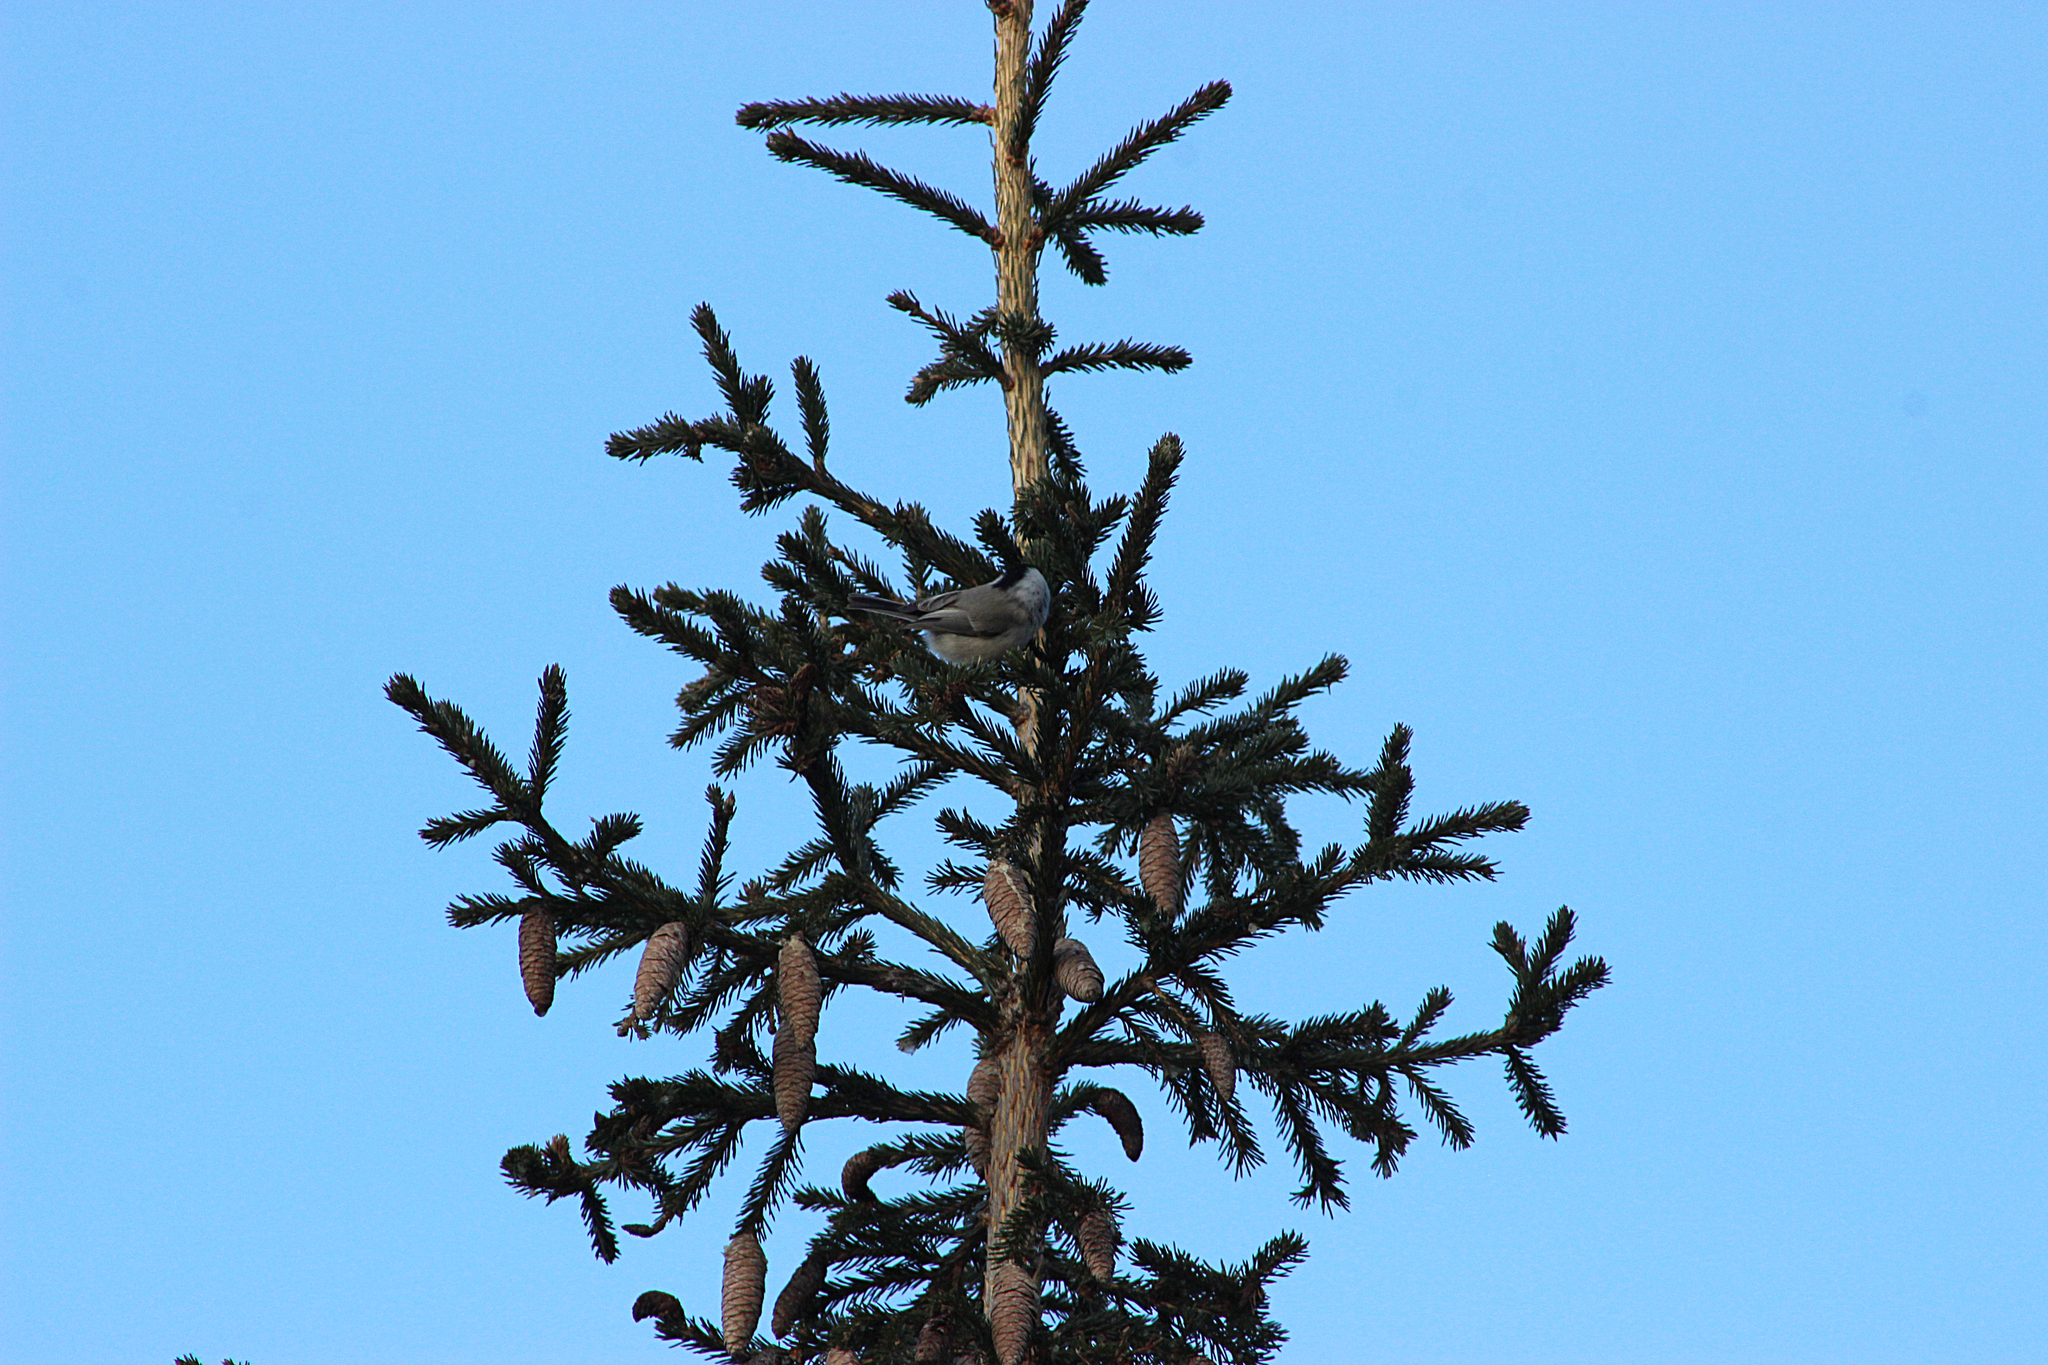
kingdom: Animalia
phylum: Chordata
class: Aves
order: Passeriformes
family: Paridae
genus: Poecile
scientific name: Poecile montanus
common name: Willow tit
